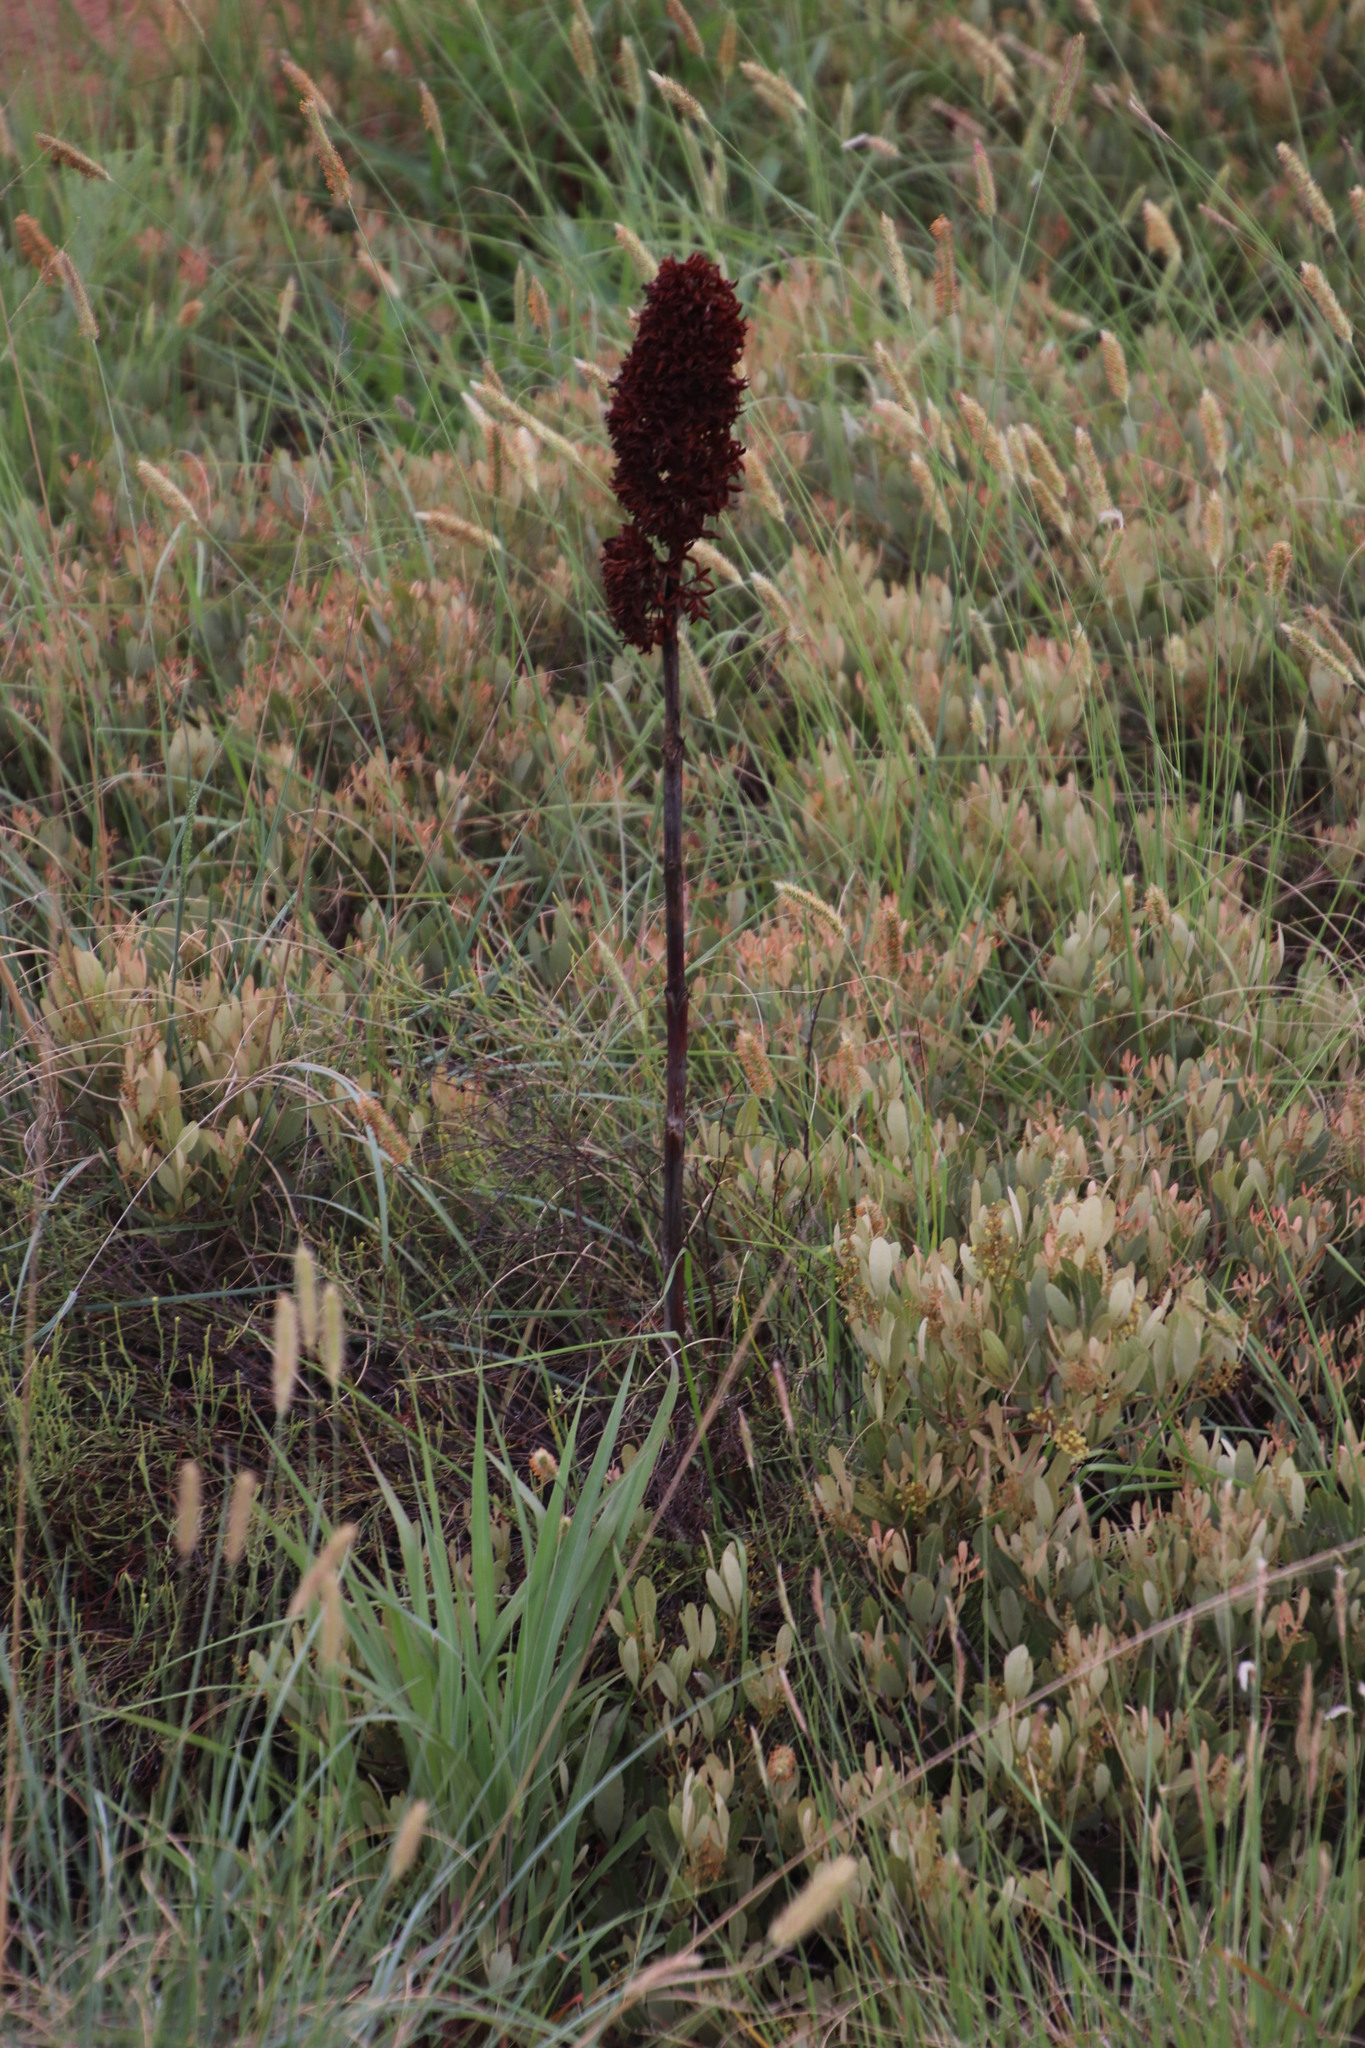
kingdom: Plantae
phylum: Tracheophyta
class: Magnoliopsida
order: Saxifragales
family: Crassulaceae
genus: Kalanchoe
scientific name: Kalanchoe thyrsiflora
